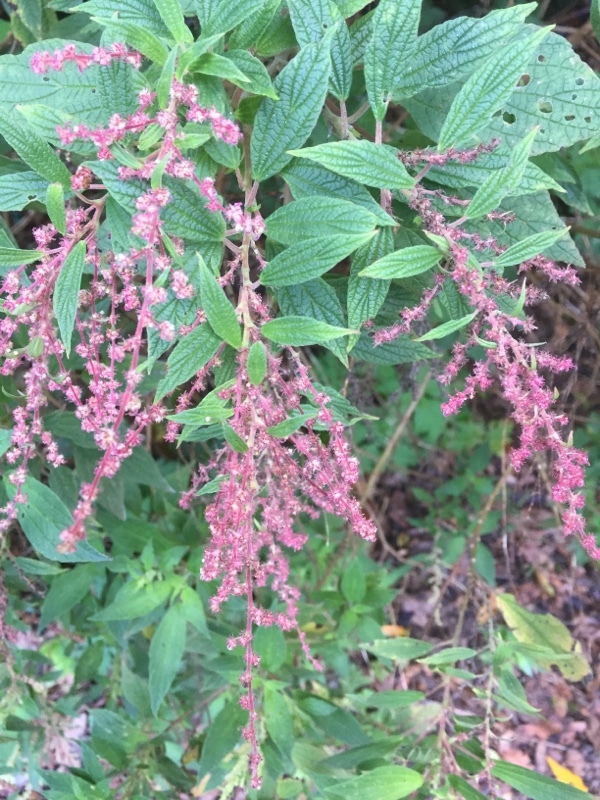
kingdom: Plantae
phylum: Tracheophyta
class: Magnoliopsida
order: Rosales
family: Urticaceae
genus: Gesnouinia
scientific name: Gesnouinia arborea
